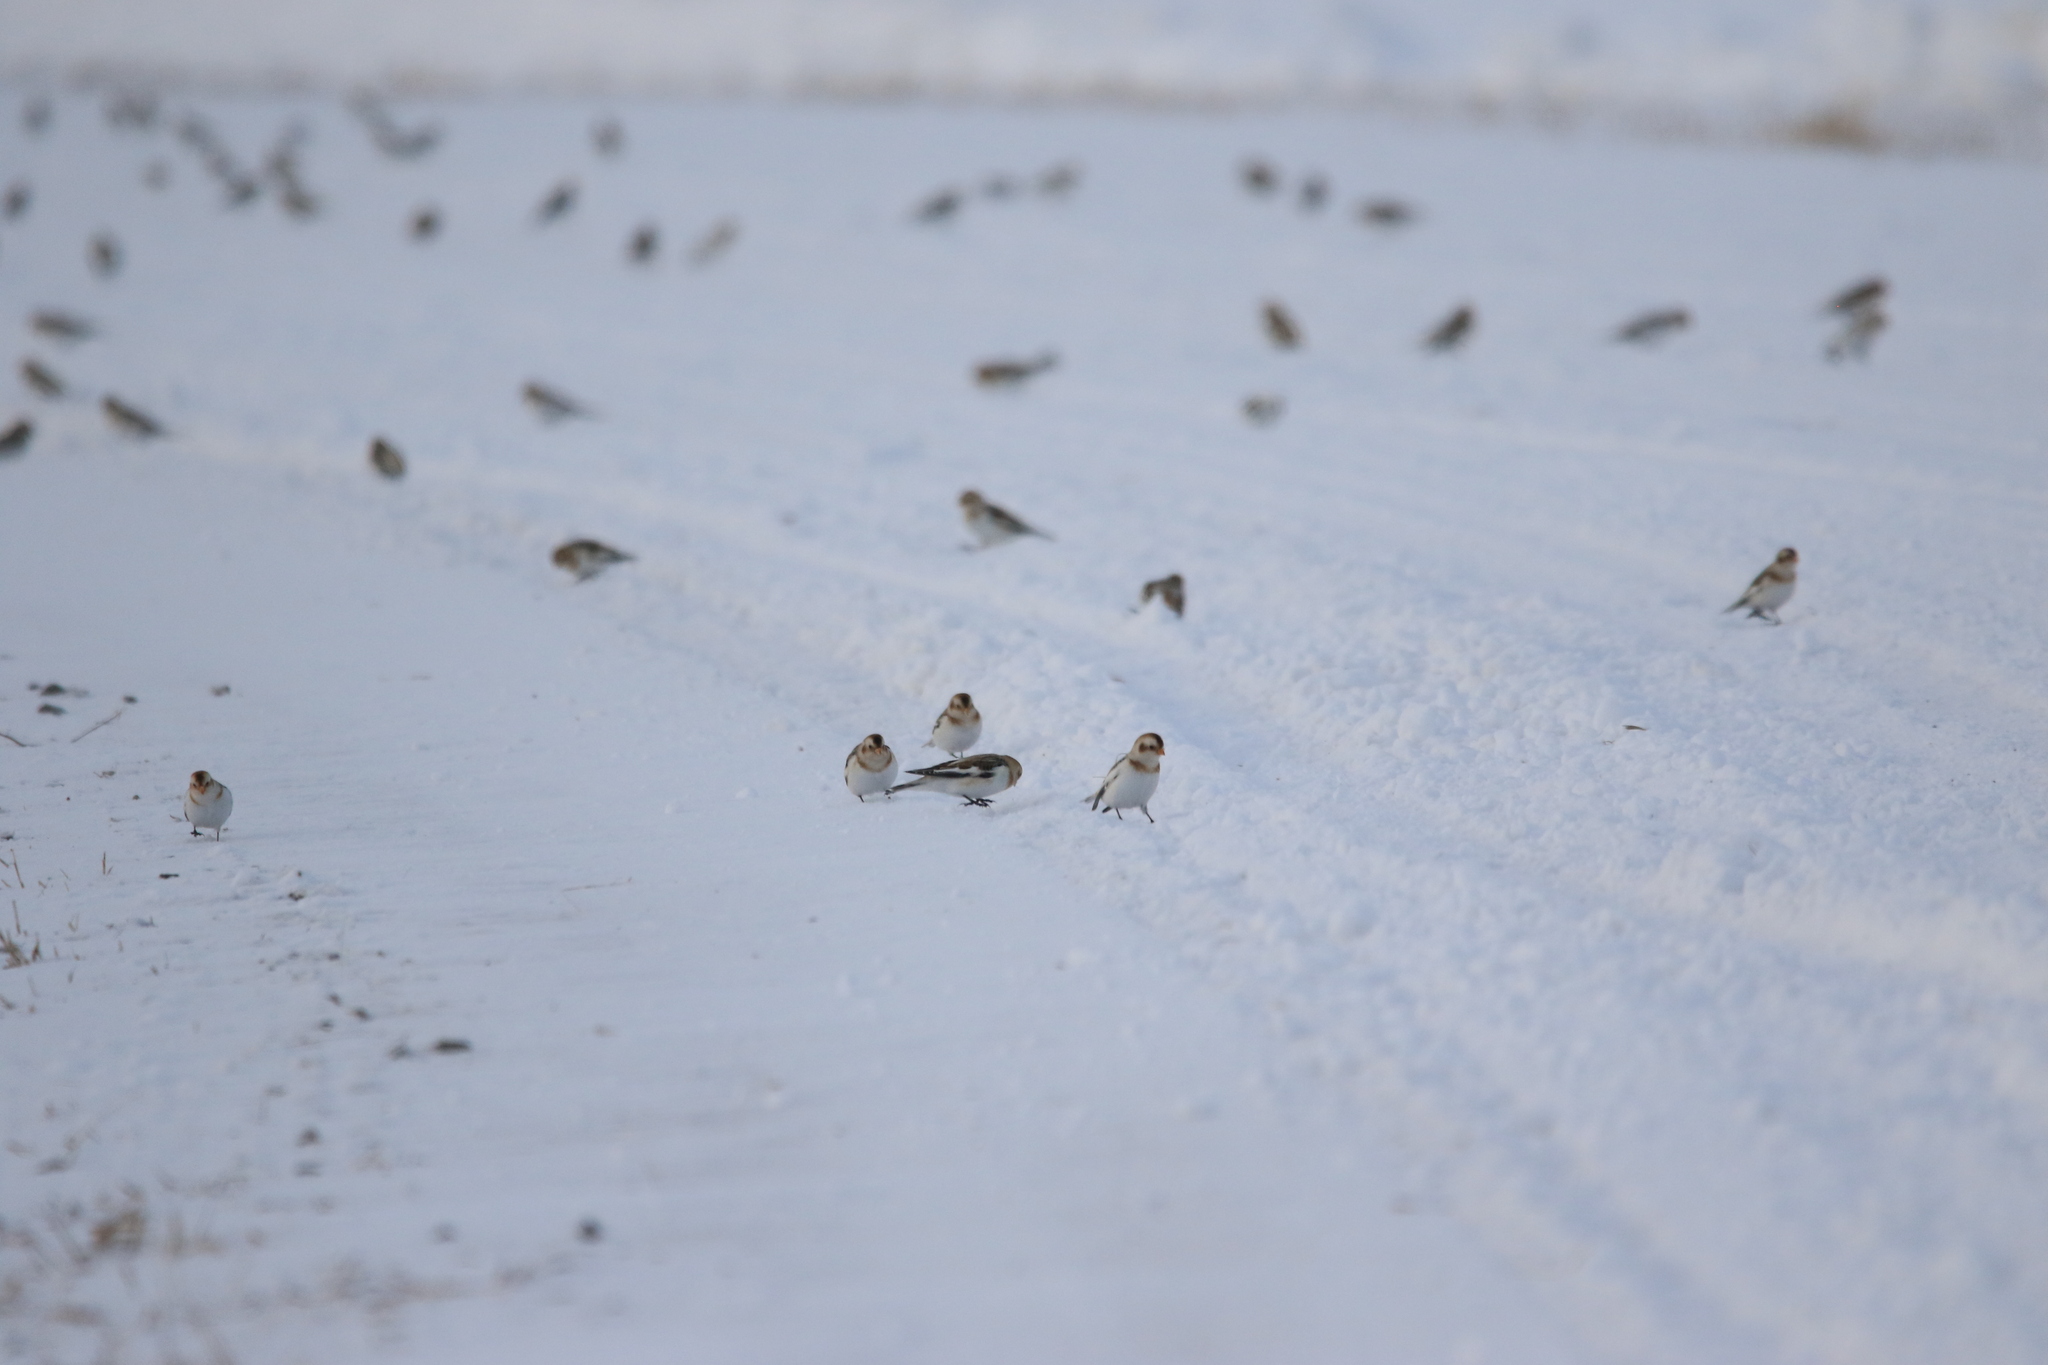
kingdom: Animalia
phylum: Chordata
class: Aves
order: Passeriformes
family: Calcariidae
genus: Plectrophenax
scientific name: Plectrophenax nivalis
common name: Snow bunting
